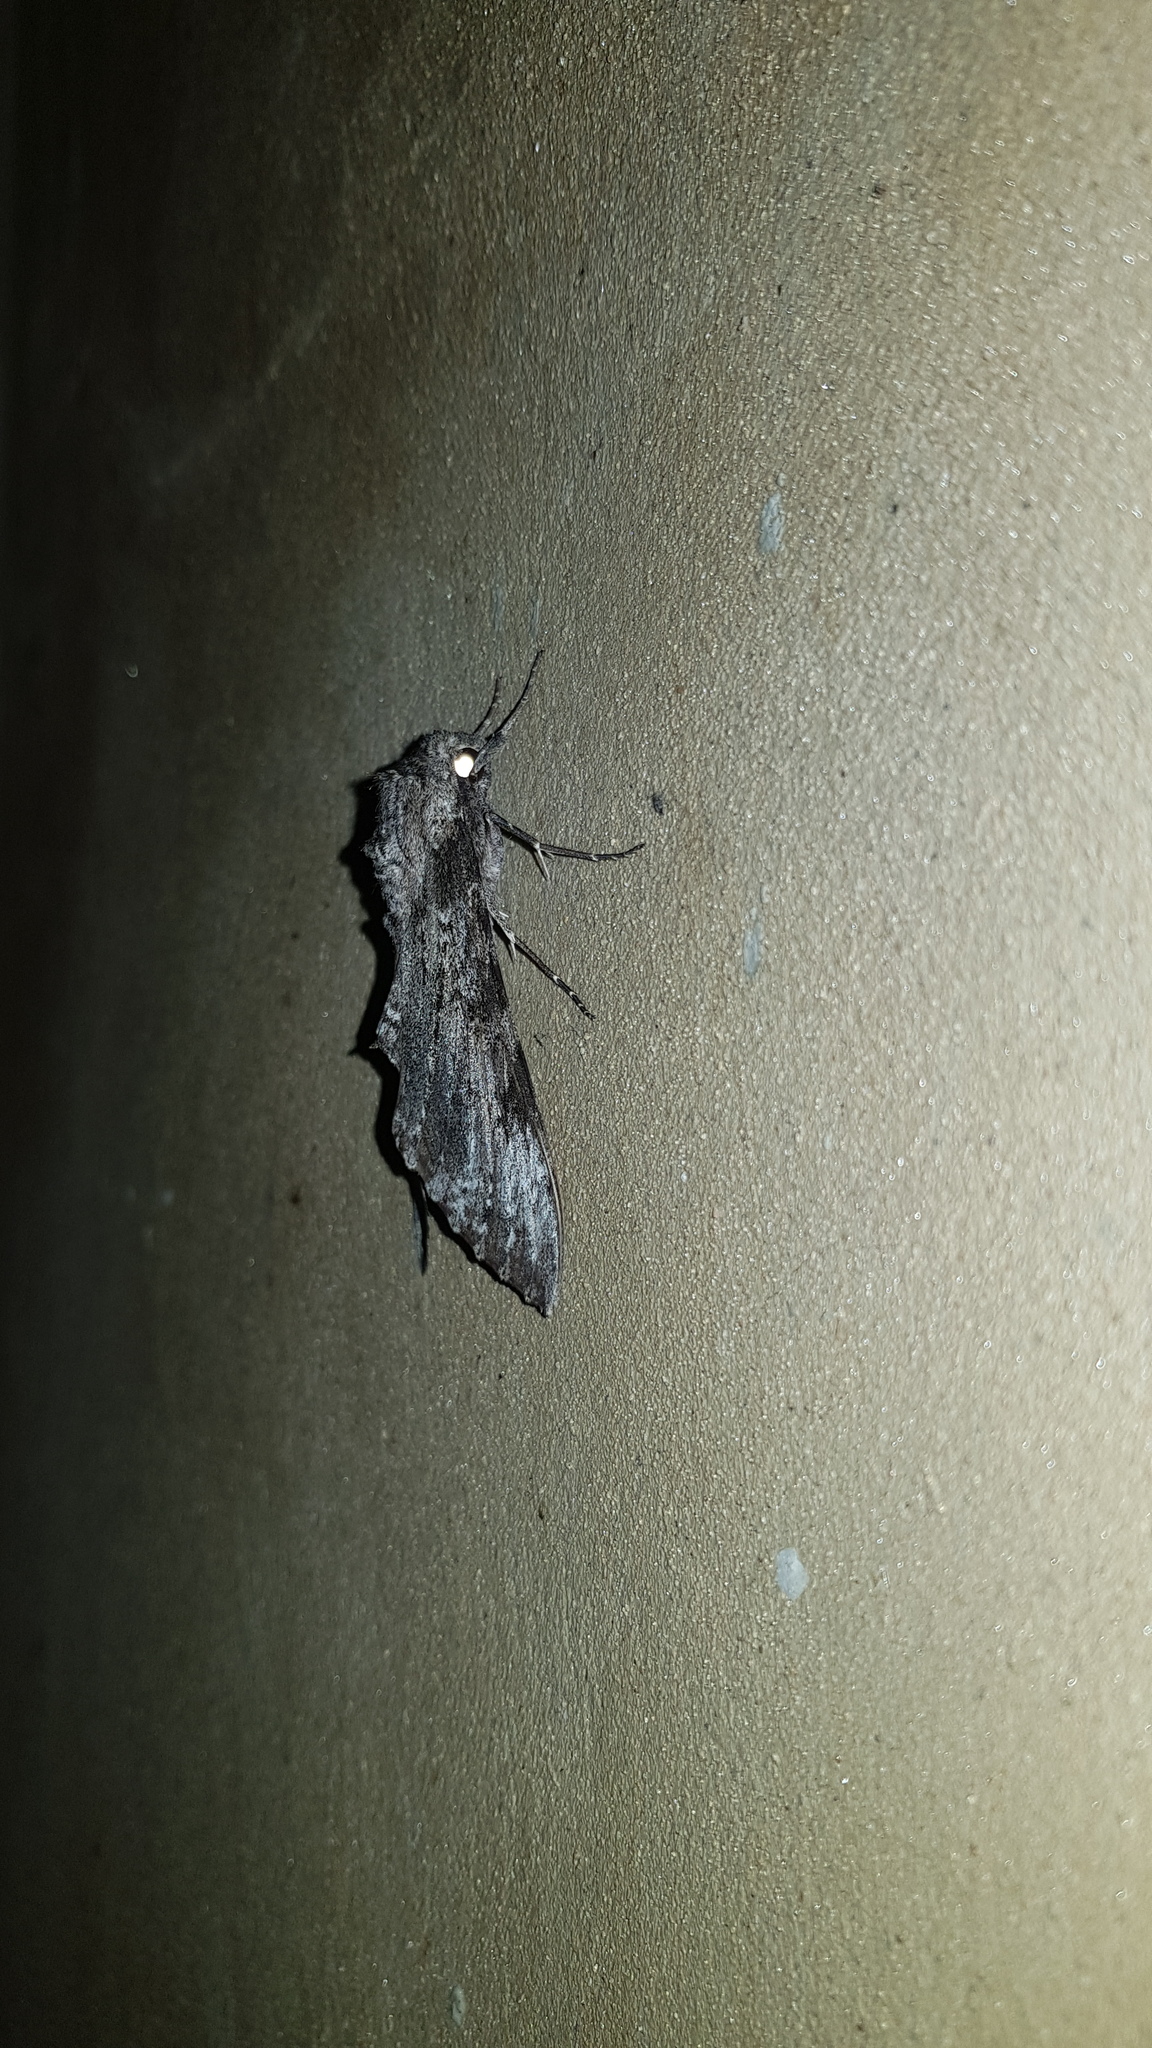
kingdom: Animalia
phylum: Arthropoda
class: Insecta
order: Lepidoptera
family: Sphingidae
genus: Manduca
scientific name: Manduca sexta
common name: Carolina sphinx
